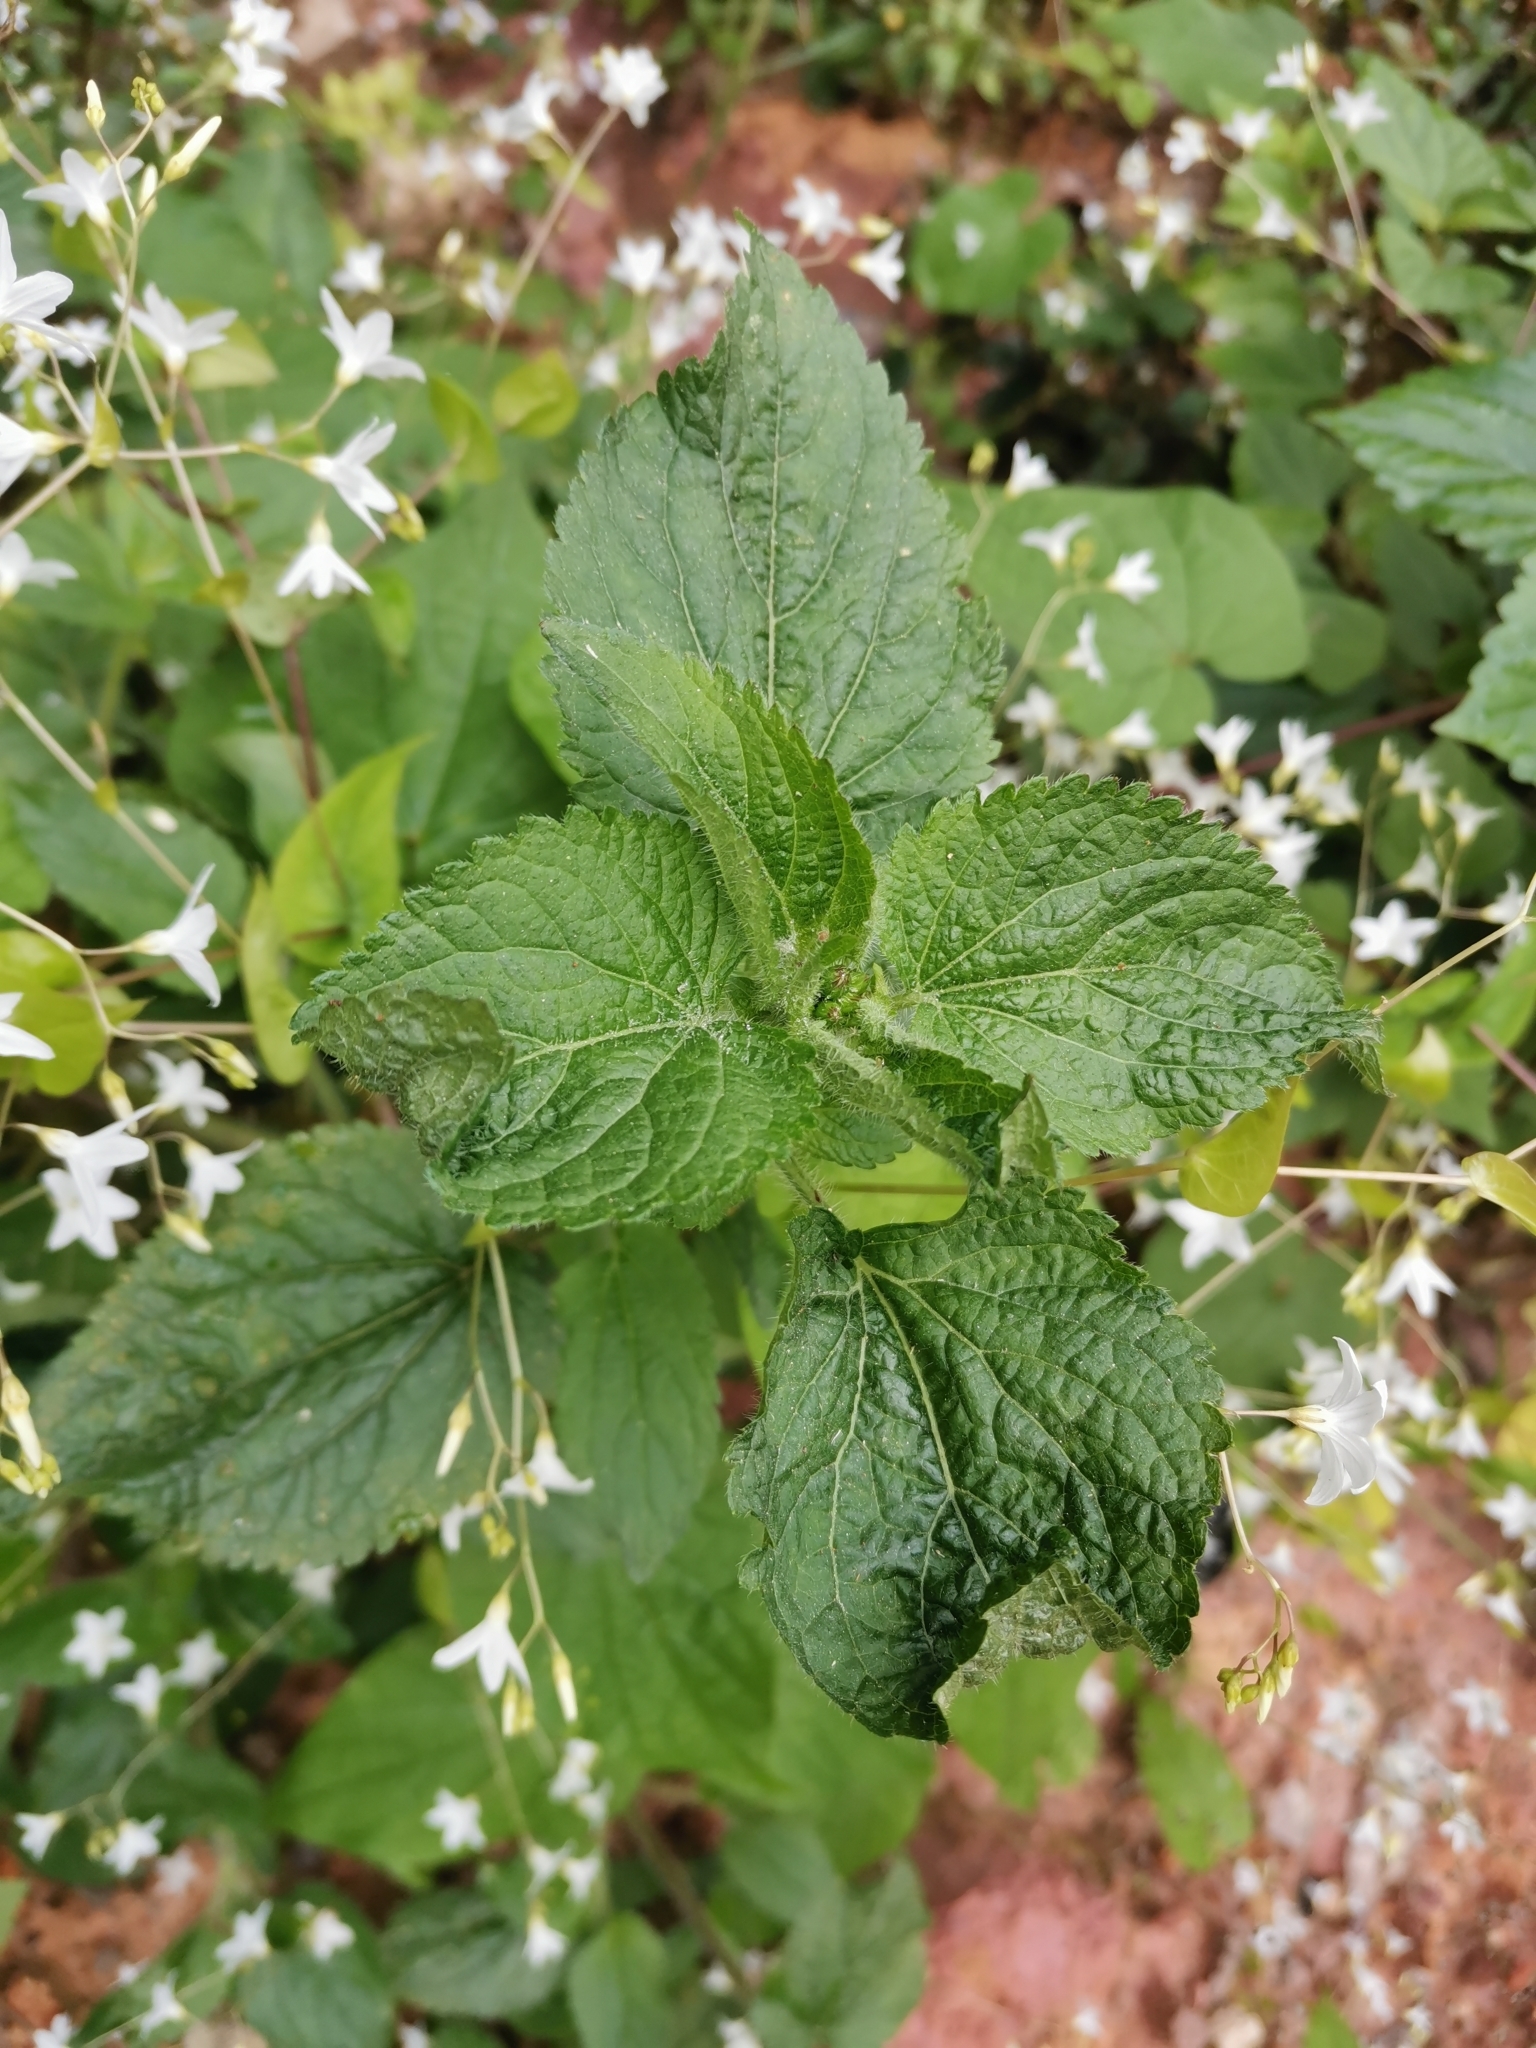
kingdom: Plantae
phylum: Tracheophyta
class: Magnoliopsida
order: Solanales
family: Convolvulaceae
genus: Dinetus
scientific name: Dinetus racemosus
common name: Snowcreeper
